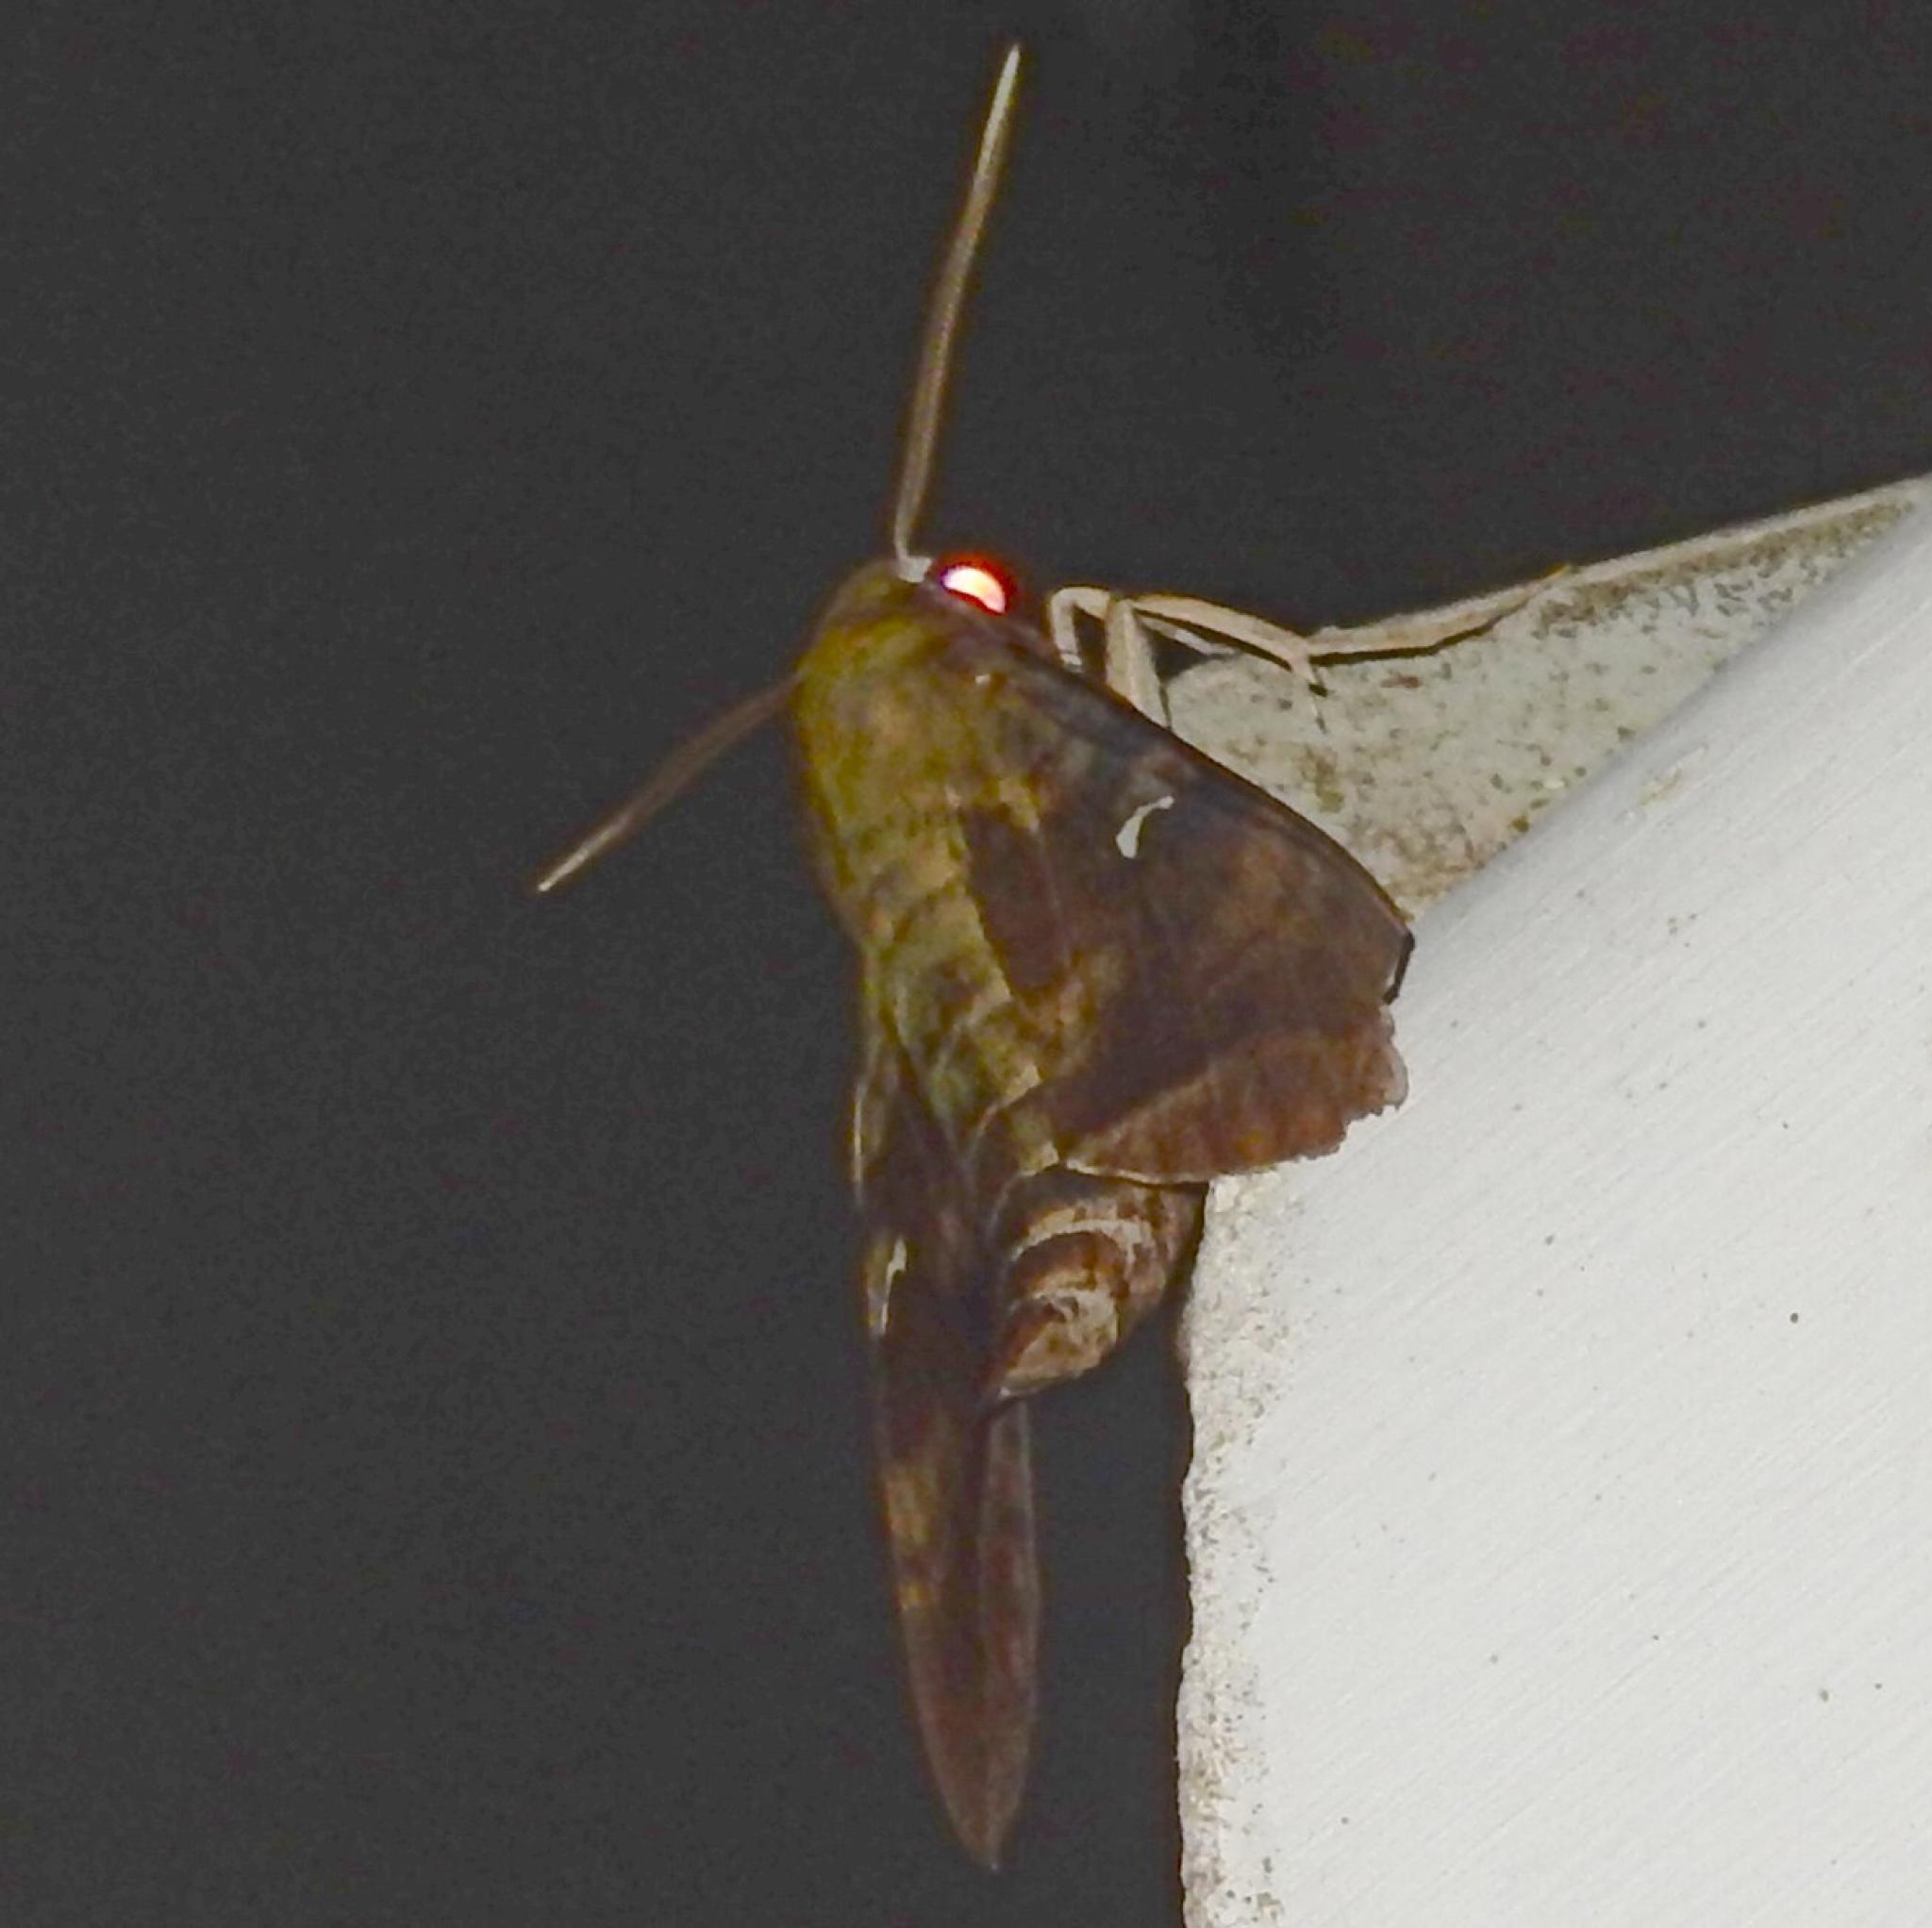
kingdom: Animalia
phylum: Arthropoda
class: Insecta
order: Lepidoptera
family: Sphingidae
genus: Nephele
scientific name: Nephele comma
